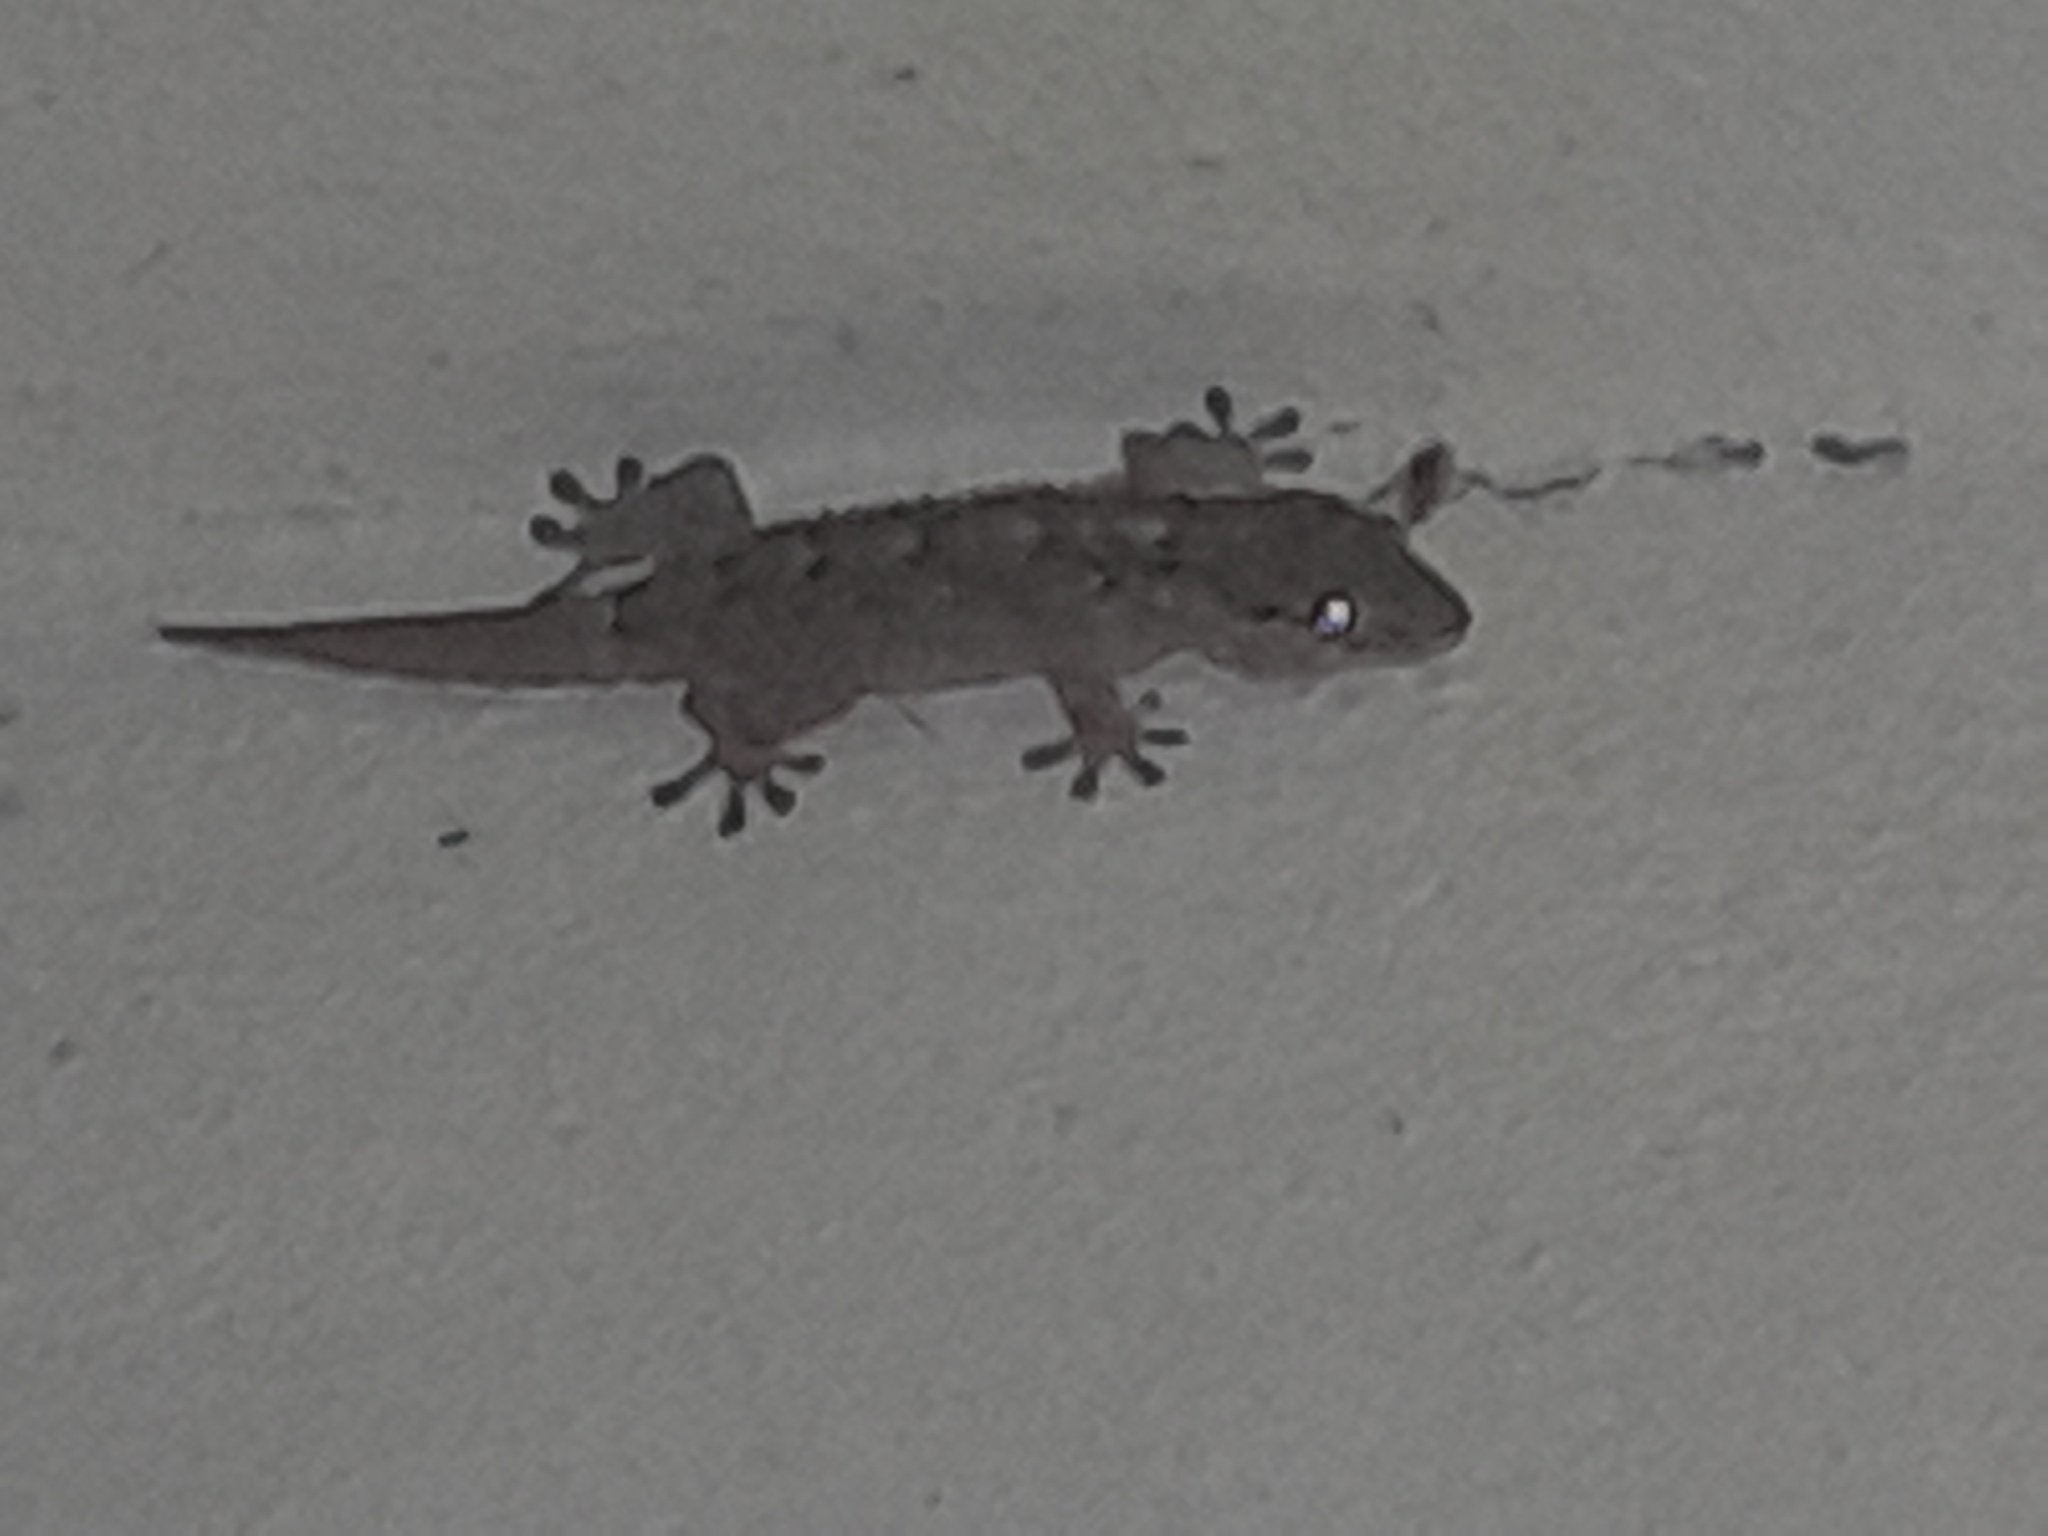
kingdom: Animalia
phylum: Chordata
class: Squamata
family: Phyllodactylidae
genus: Tarentola
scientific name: Tarentola mauritanica
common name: Moorish gecko
